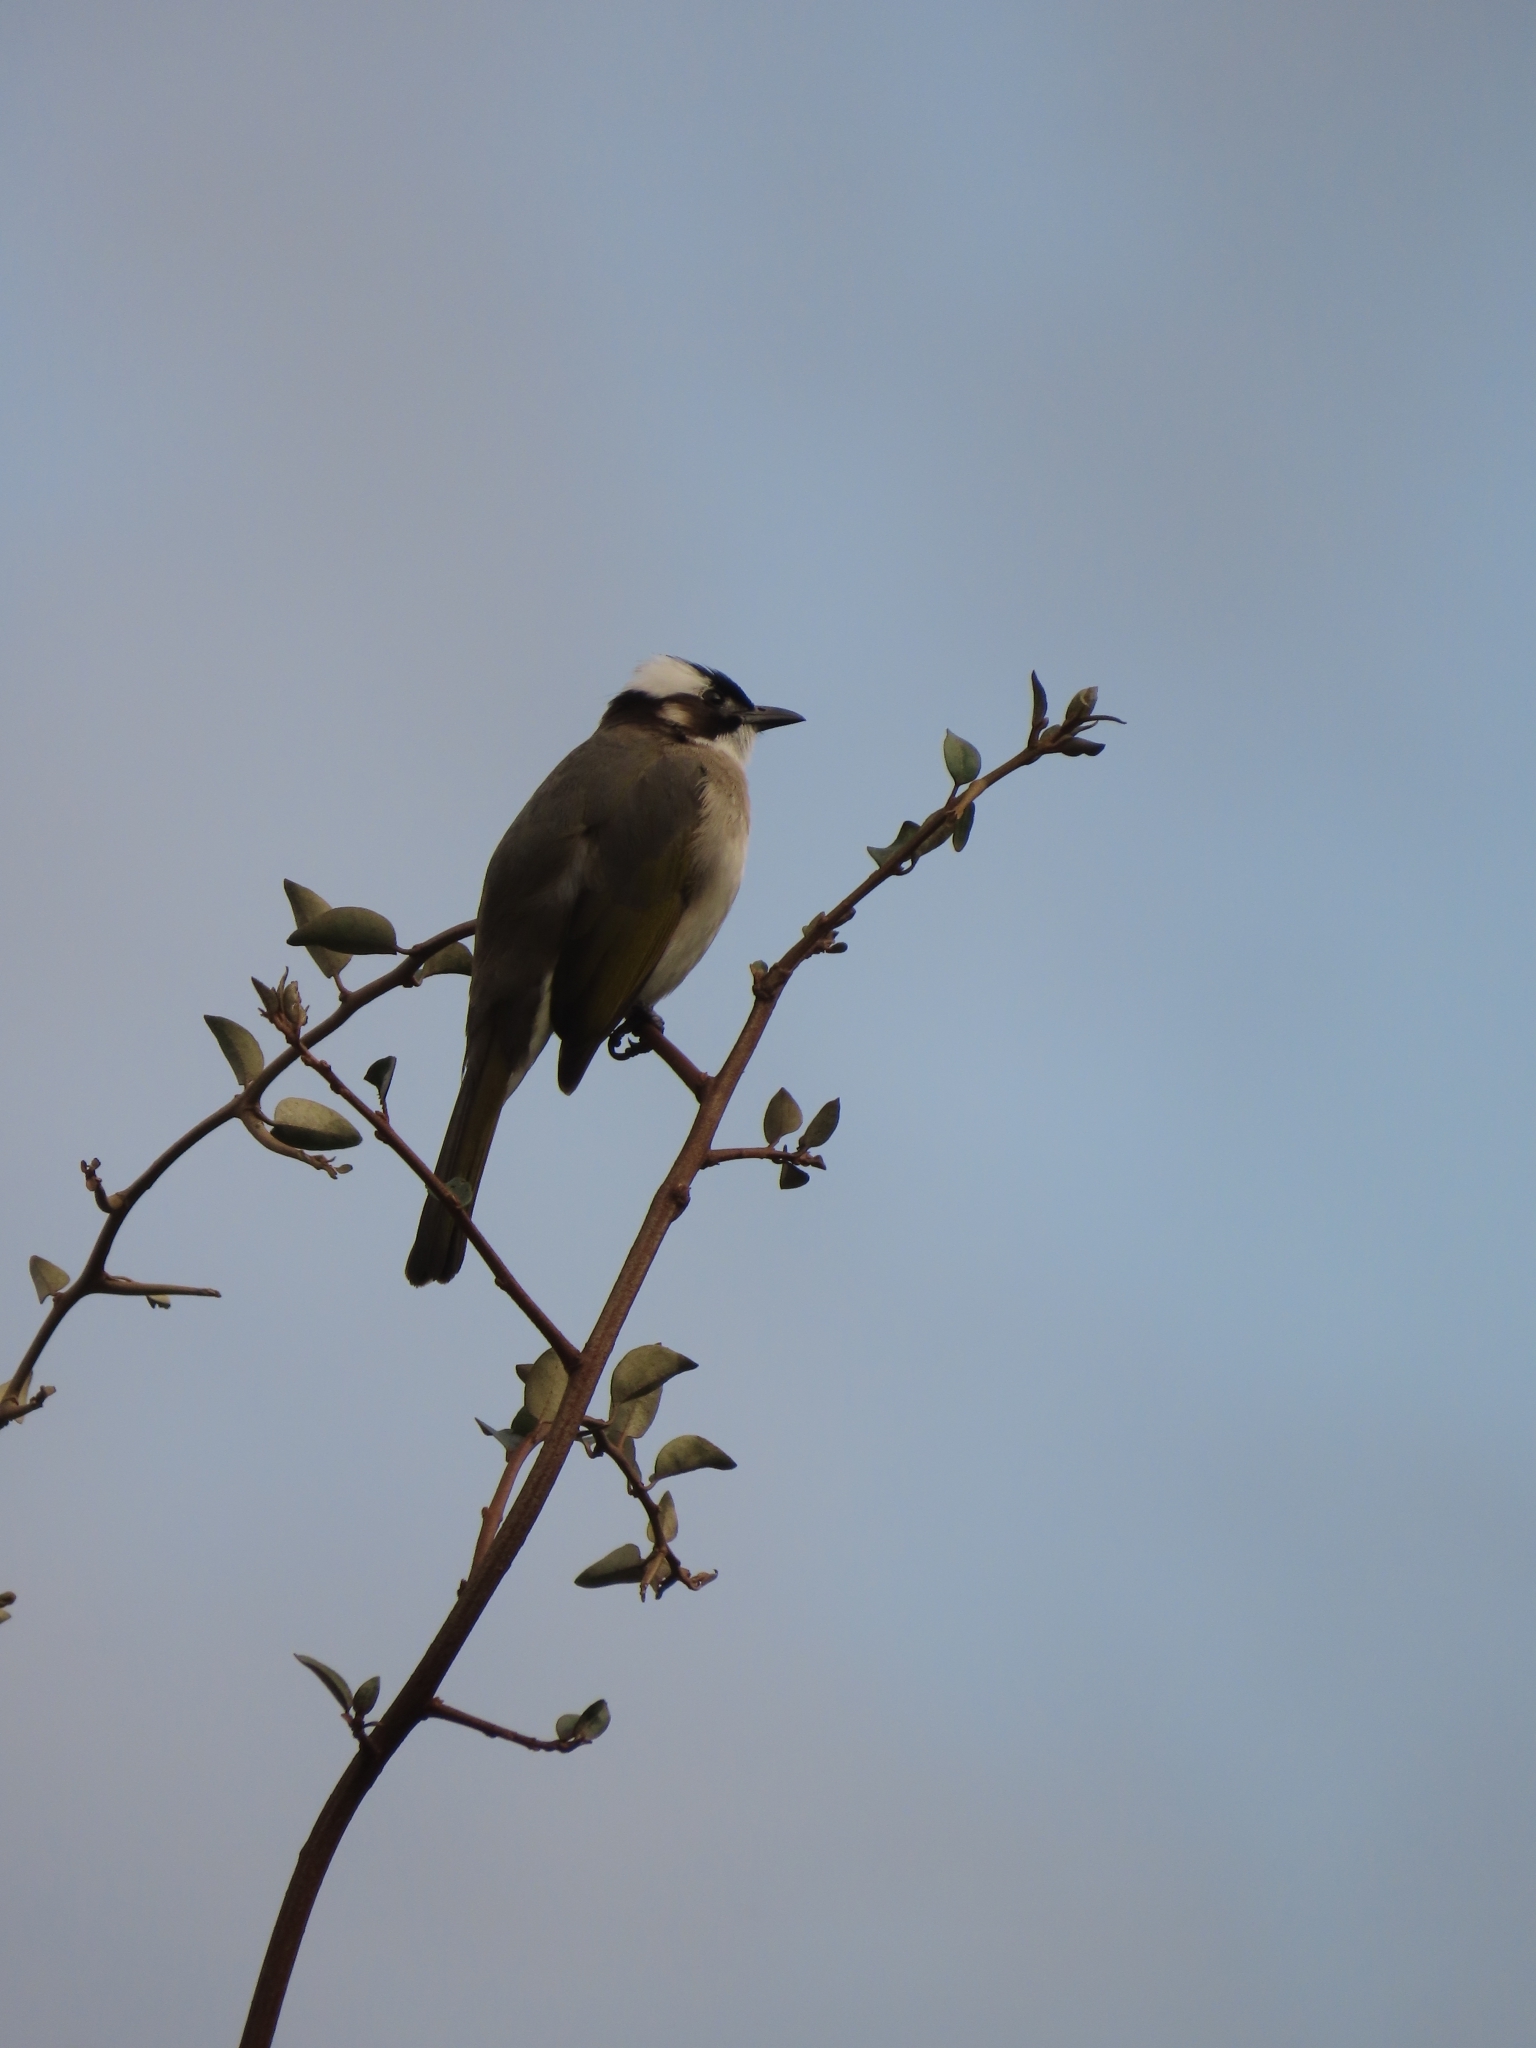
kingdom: Animalia
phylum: Chordata
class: Aves
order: Passeriformes
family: Pycnonotidae
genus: Pycnonotus
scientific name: Pycnonotus sinensis
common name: Light-vented bulbul
